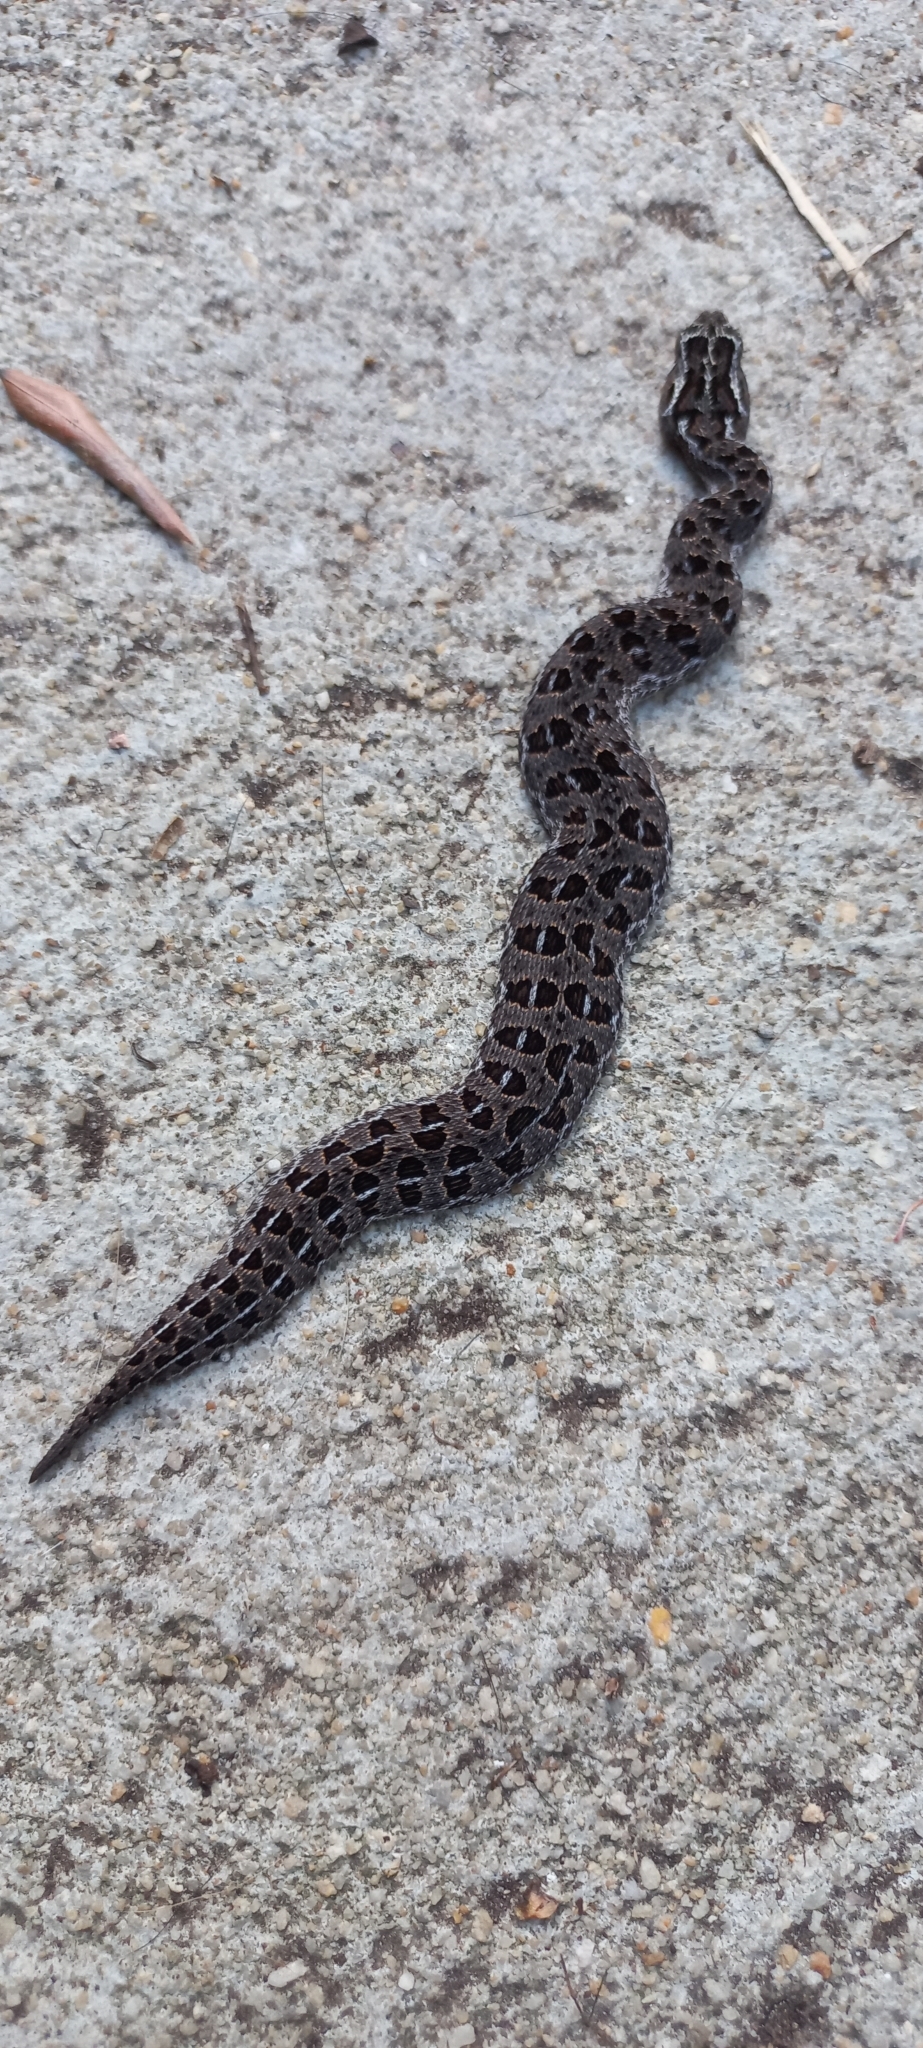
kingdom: Animalia
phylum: Chordata
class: Squamata
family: Viperidae
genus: Bitis
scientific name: Bitis atropos
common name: Mountain adder
